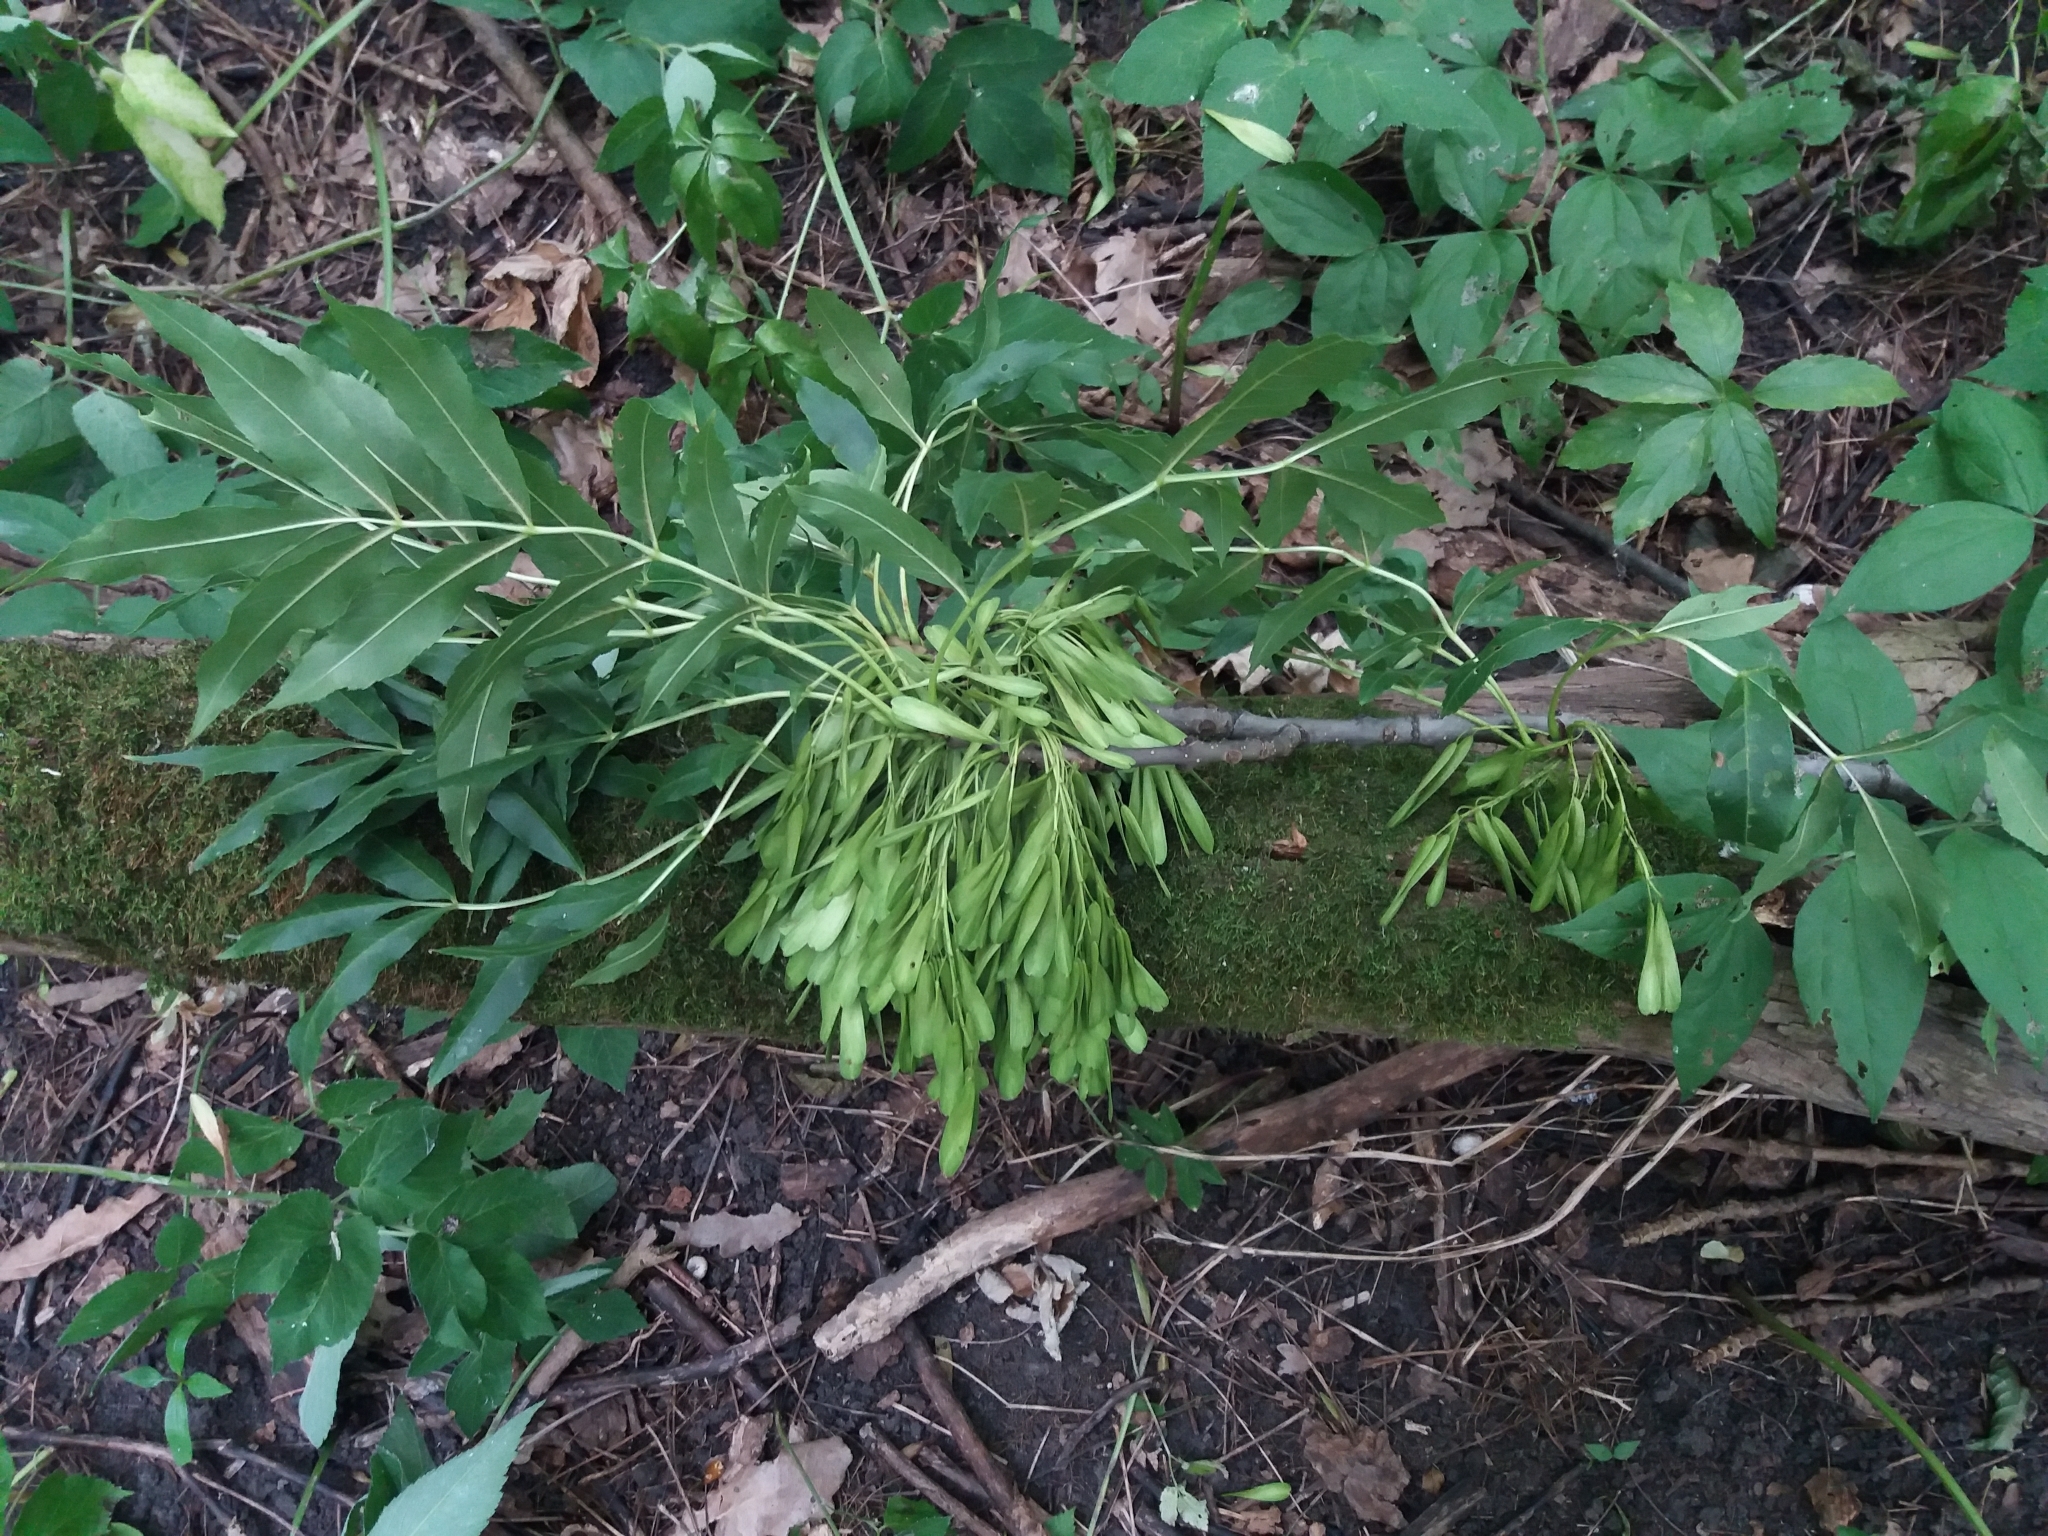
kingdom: Plantae
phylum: Tracheophyta
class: Magnoliopsida
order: Lamiales
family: Oleaceae
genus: Fraxinus
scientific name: Fraxinus excelsior
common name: European ash
